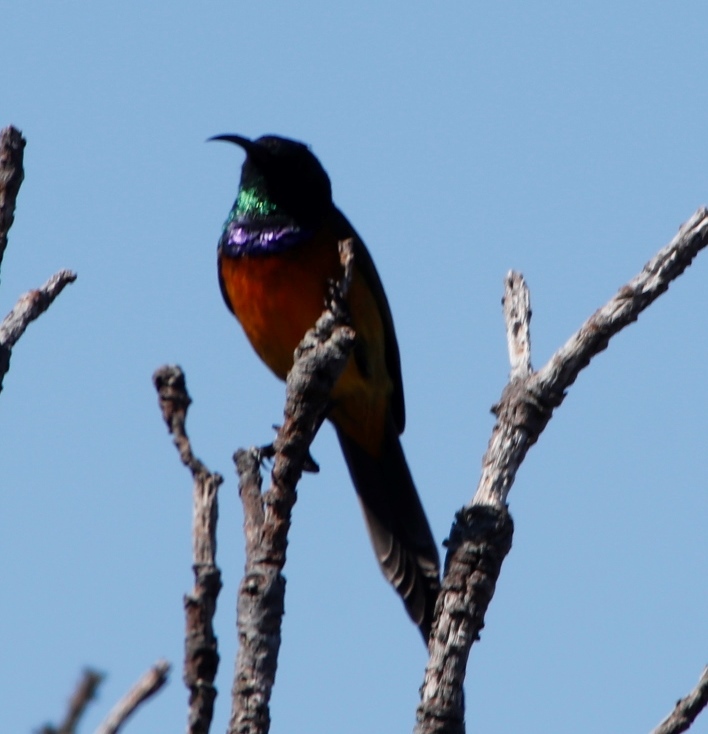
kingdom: Animalia
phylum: Chordata
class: Aves
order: Passeriformes
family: Nectariniidae
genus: Anthobaphes
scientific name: Anthobaphes violacea
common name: Orange-breasted sunbird
